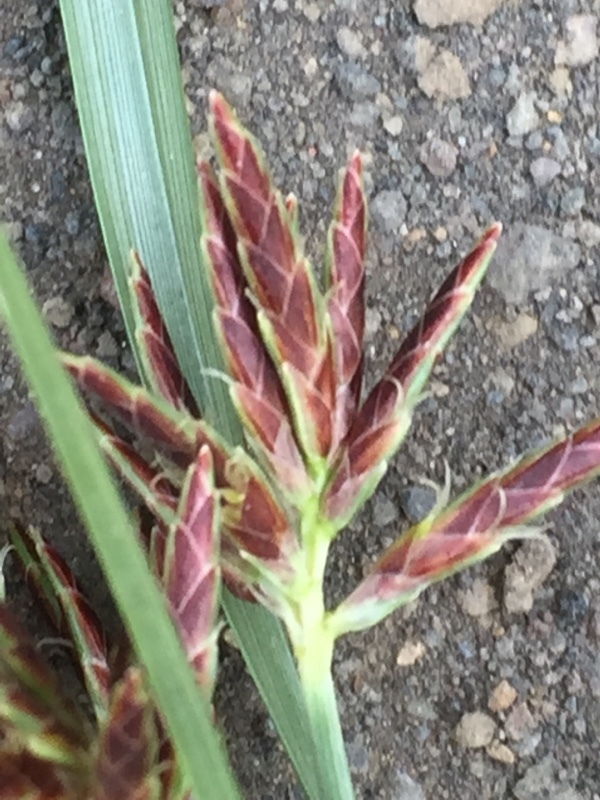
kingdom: Plantae
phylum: Tracheophyta
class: Liliopsida
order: Poales
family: Cyperaceae
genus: Cyperus
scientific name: Cyperus rotundus
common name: Nutgrass
